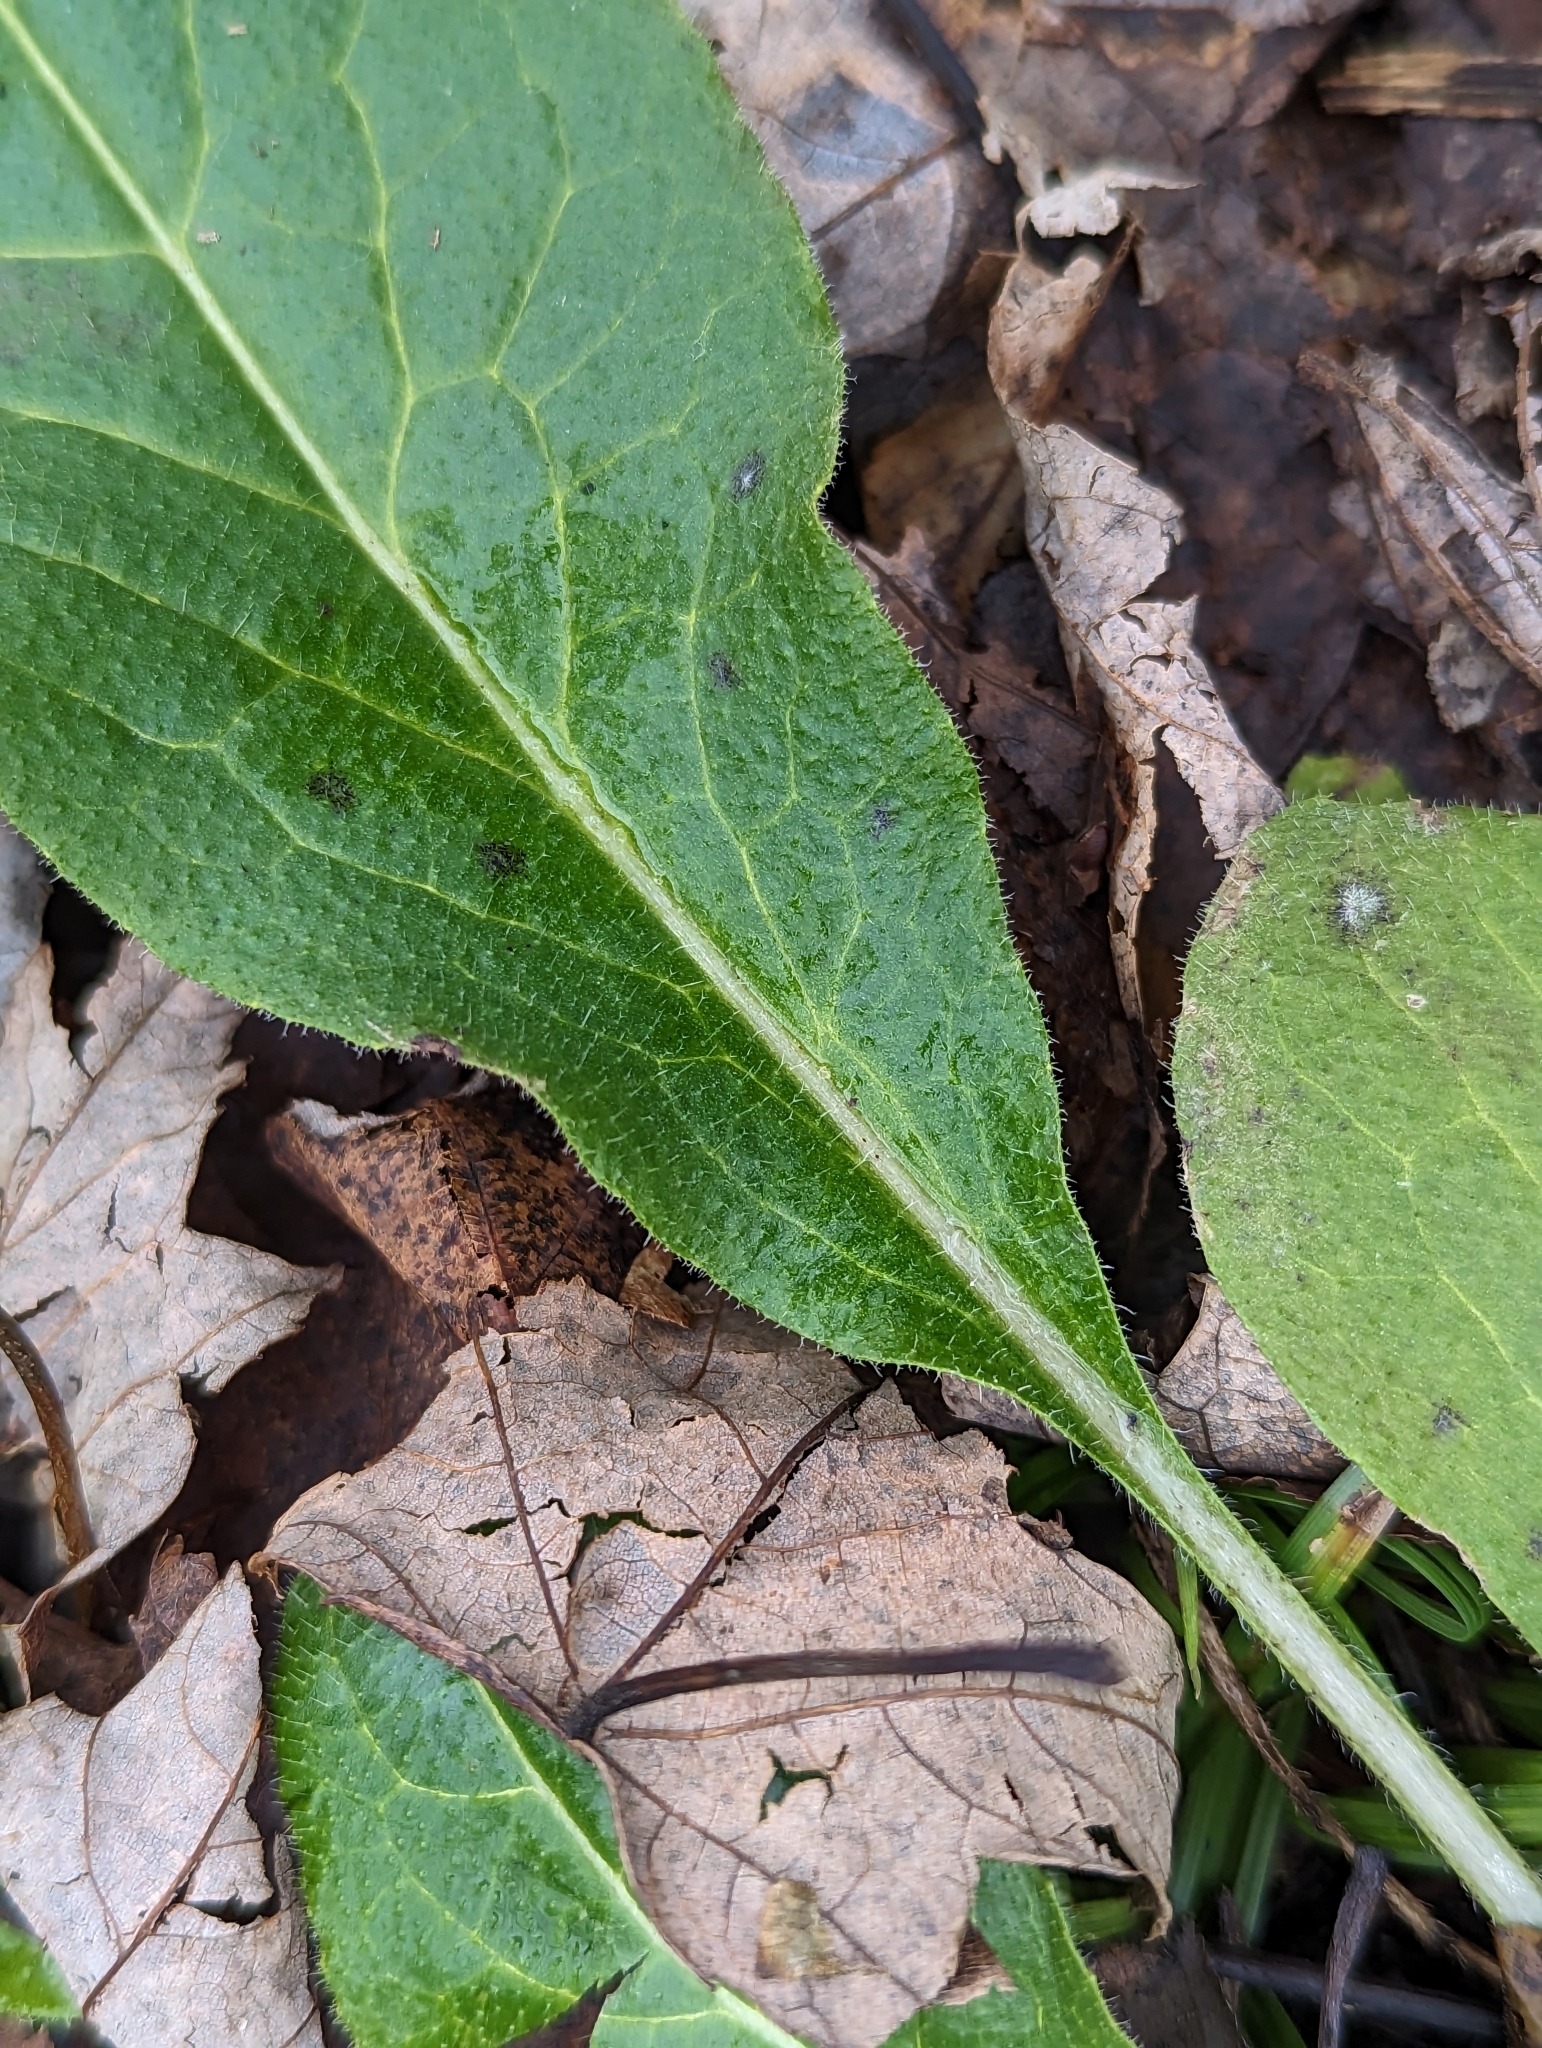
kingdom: Plantae
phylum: Tracheophyta
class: Magnoliopsida
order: Brassicales
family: Brassicaceae
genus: Hesperis
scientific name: Hesperis matronalis
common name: Dame's-violet
